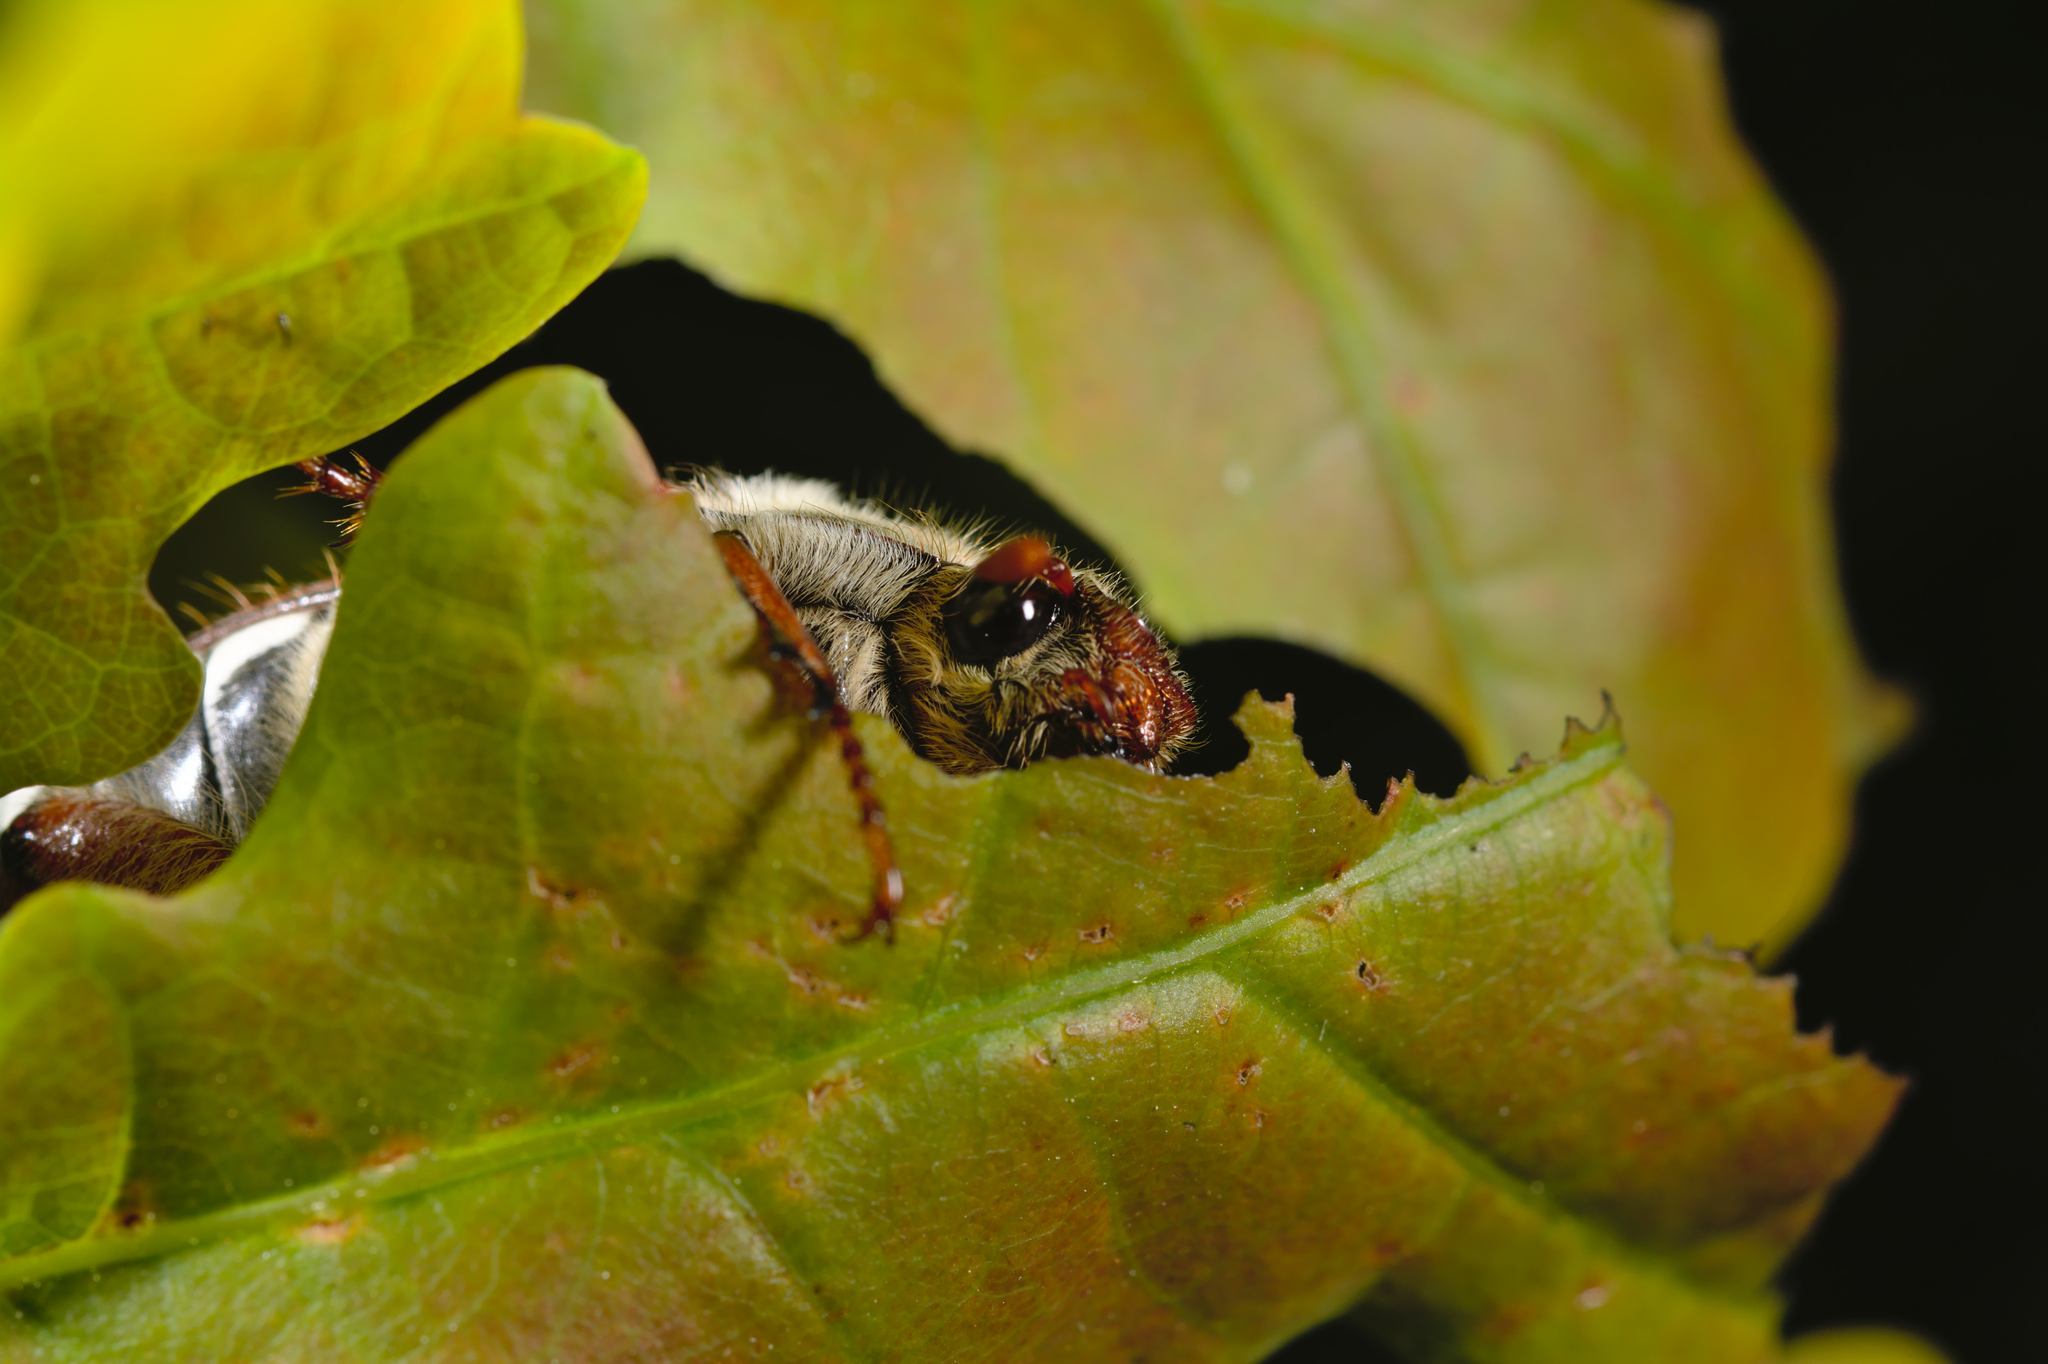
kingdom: Animalia
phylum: Arthropoda
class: Insecta
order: Coleoptera
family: Scarabaeidae
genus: Melolontha
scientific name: Melolontha melolontha
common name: Cockchafer maybeetle
